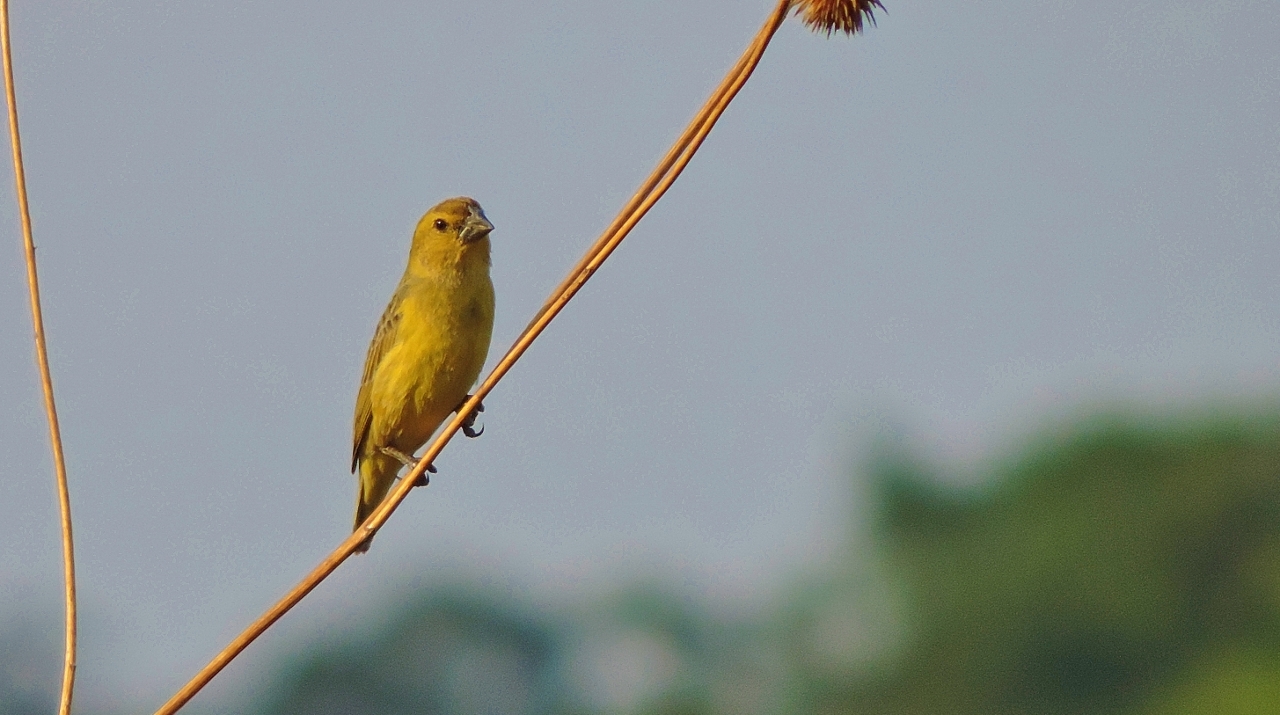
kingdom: Animalia
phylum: Chordata
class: Aves
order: Passeriformes
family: Viduidae
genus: Anomalospiza
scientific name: Anomalospiza imberbis
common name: Cuckoo weaver
